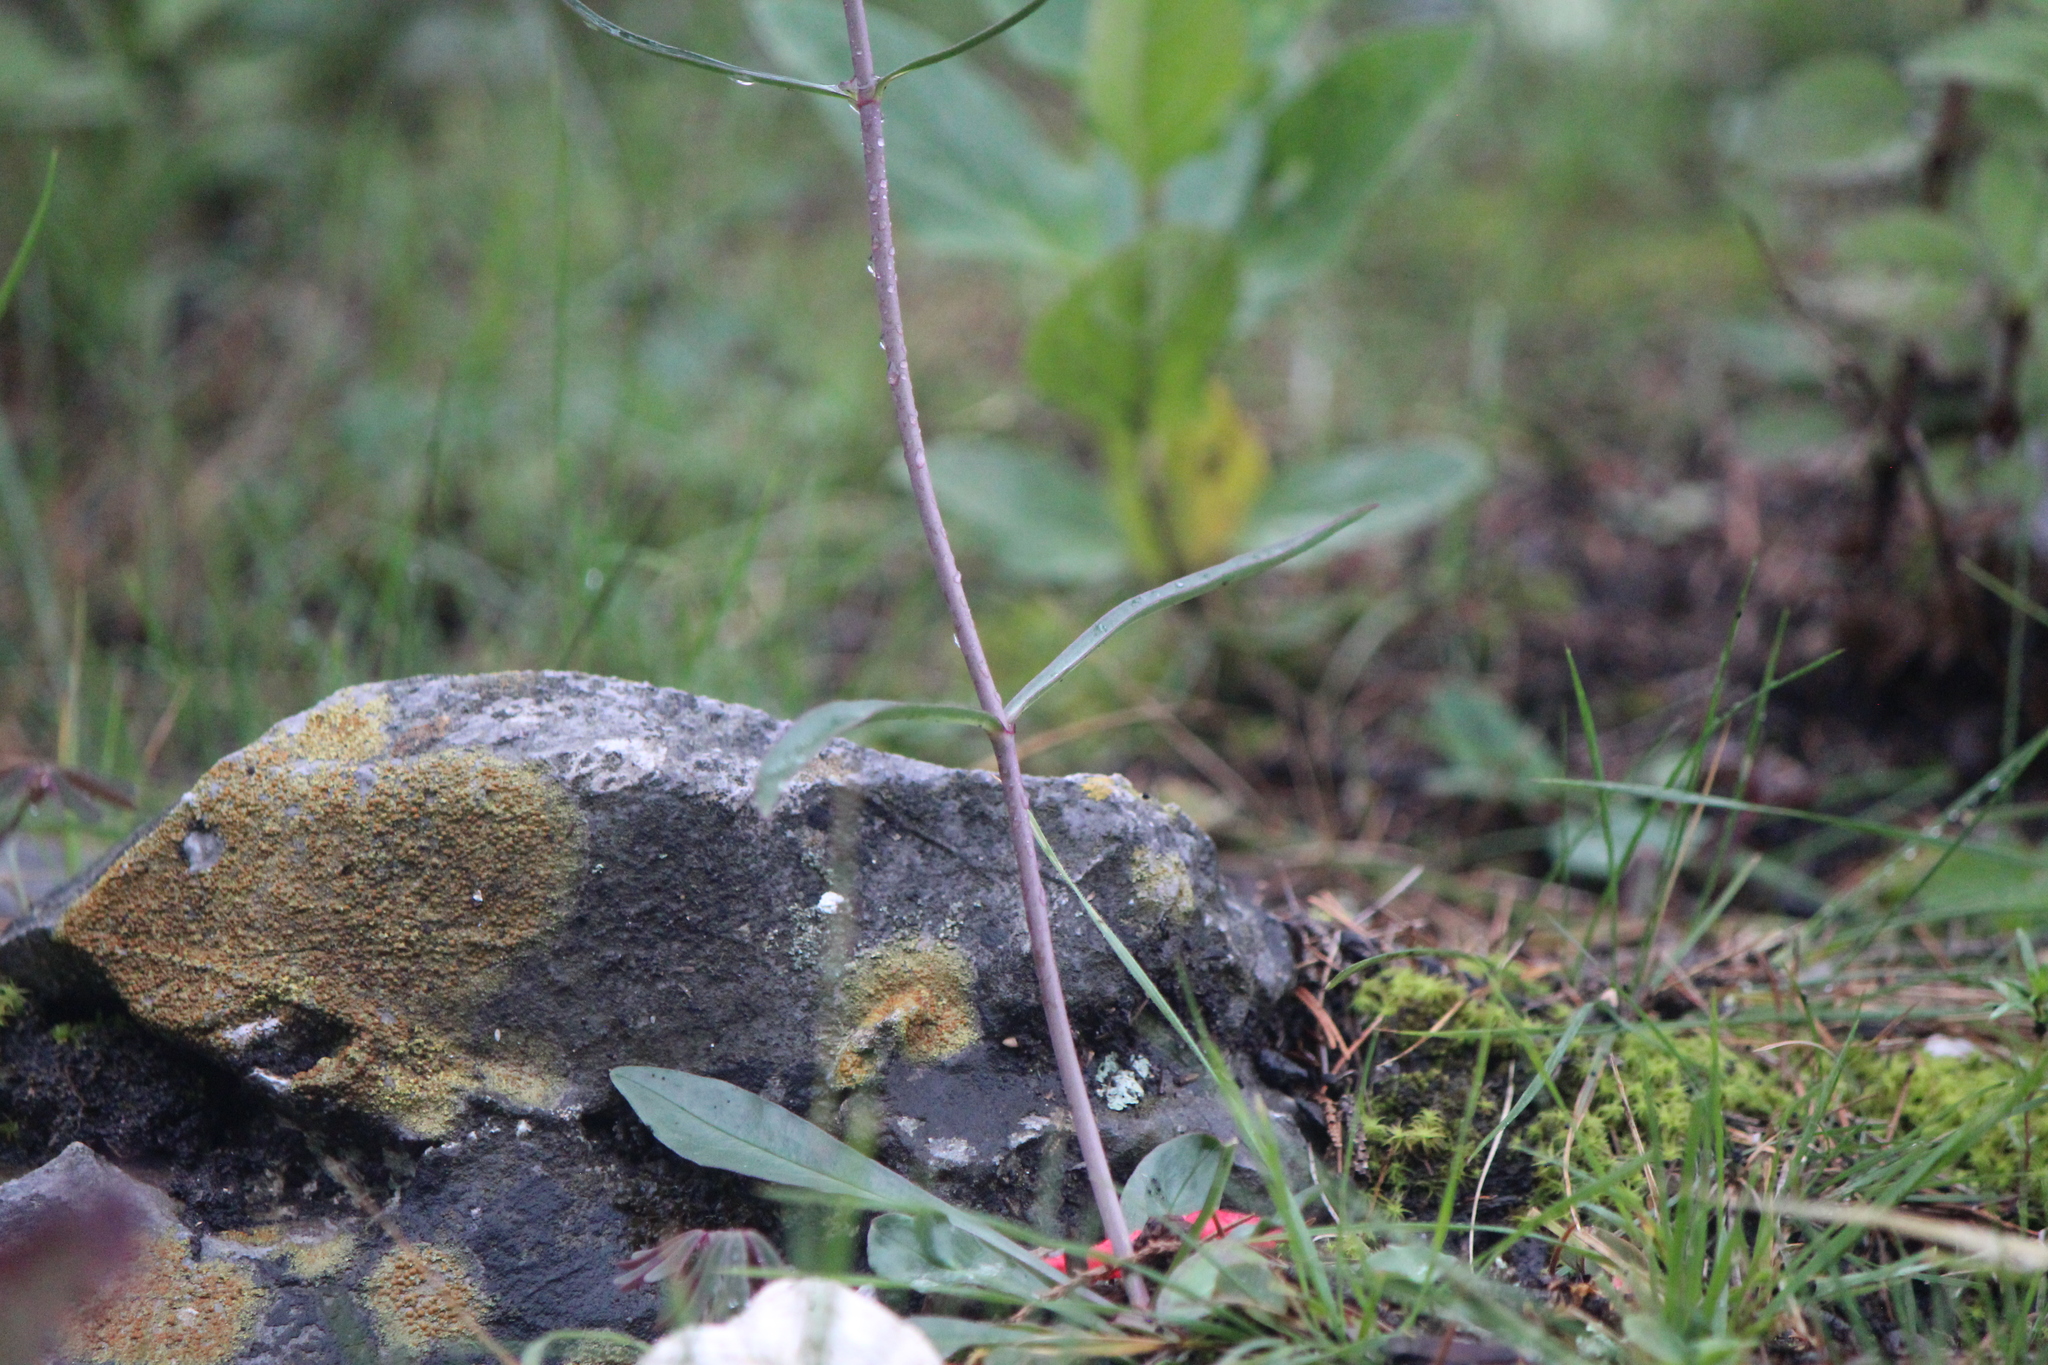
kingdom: Plantae
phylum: Tracheophyta
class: Magnoliopsida
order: Lamiales
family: Plantaginaceae
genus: Penstemon
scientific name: Penstemon barbatus
